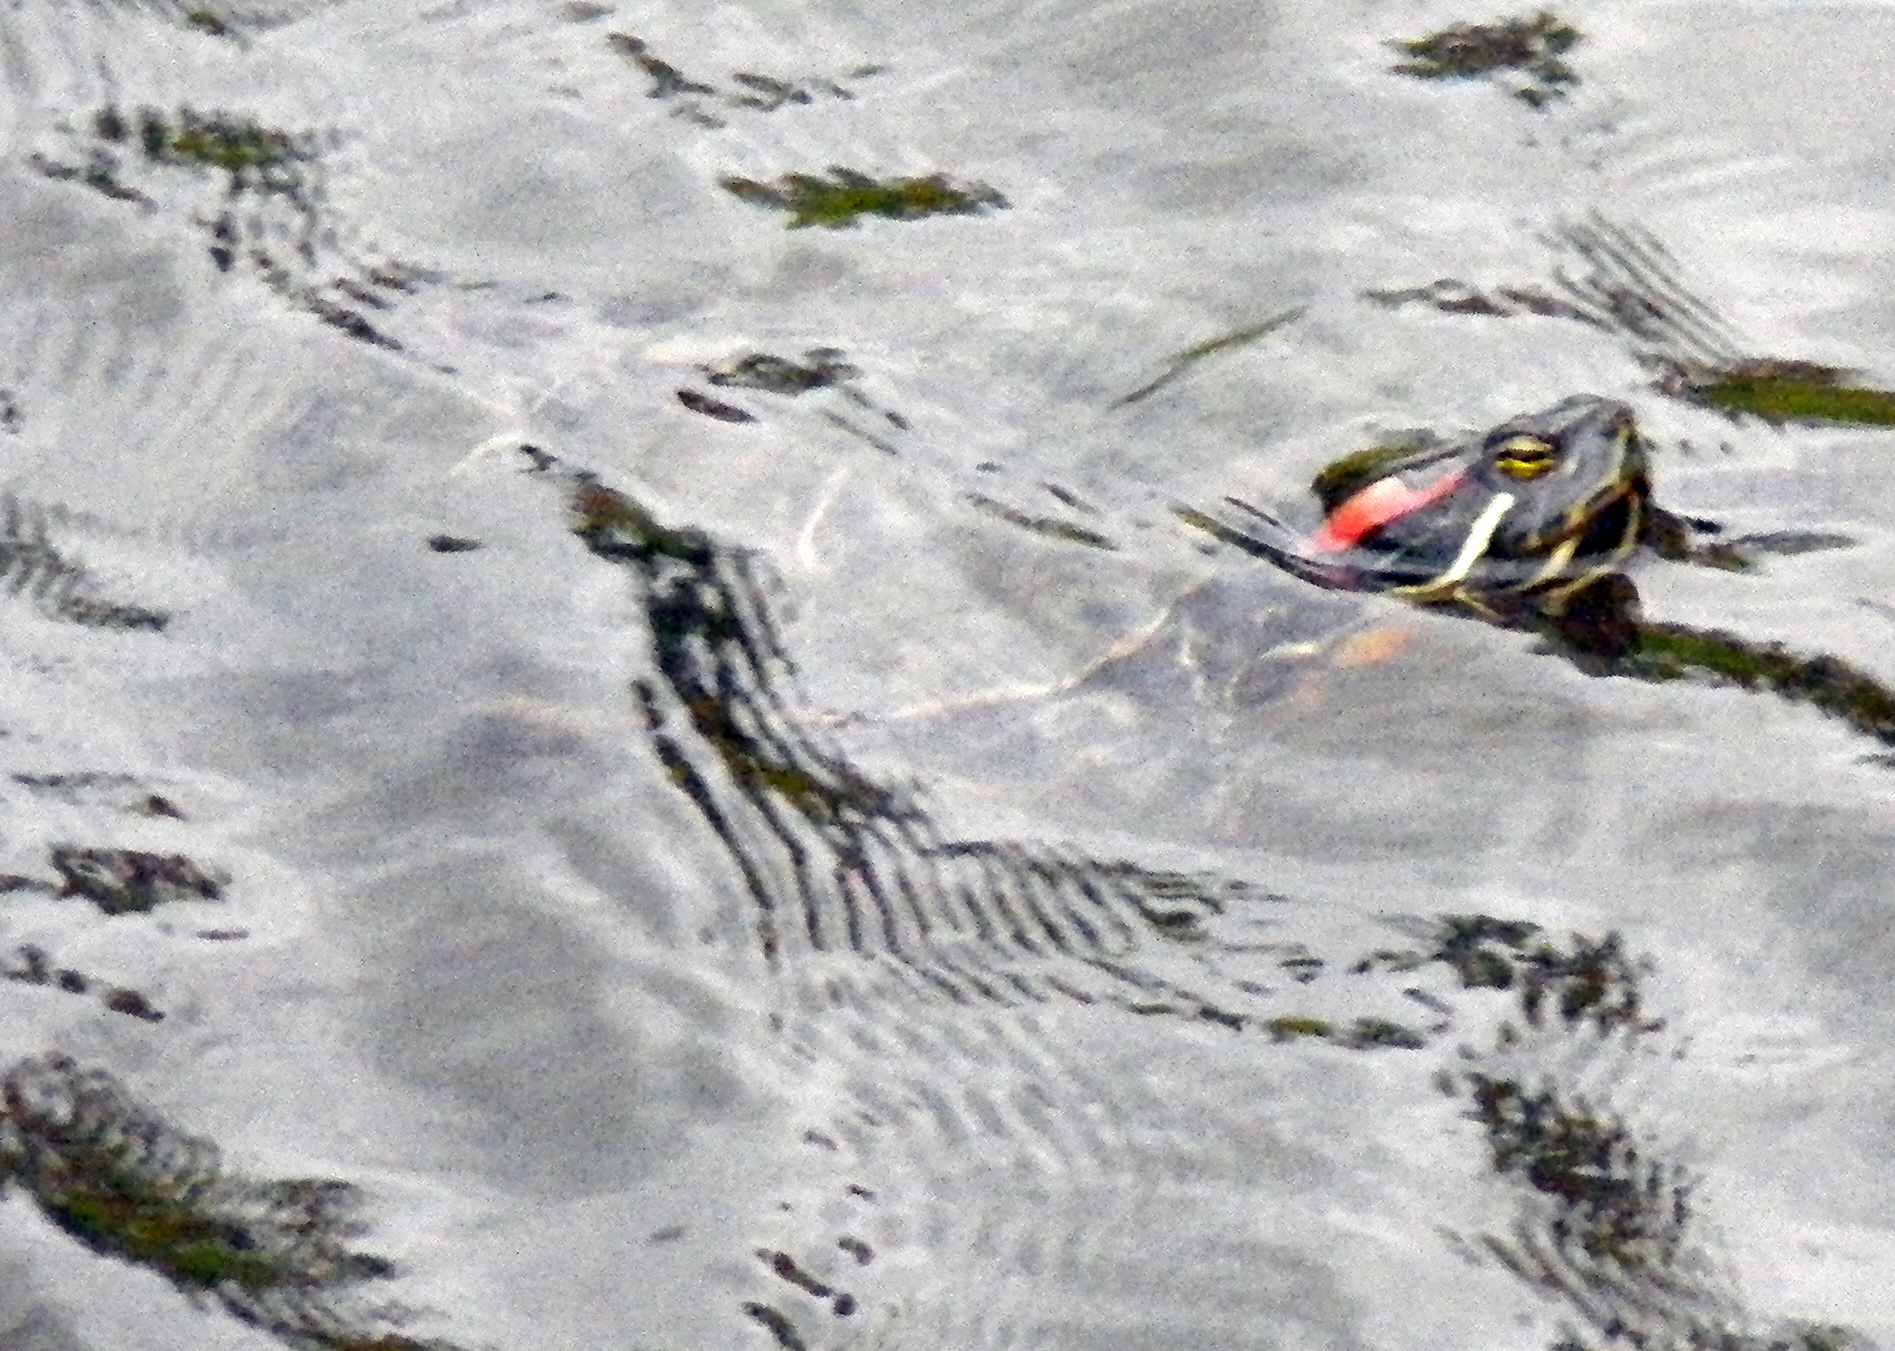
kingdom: Animalia
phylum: Chordata
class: Testudines
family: Emydidae
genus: Trachemys
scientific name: Trachemys scripta
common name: Slider
